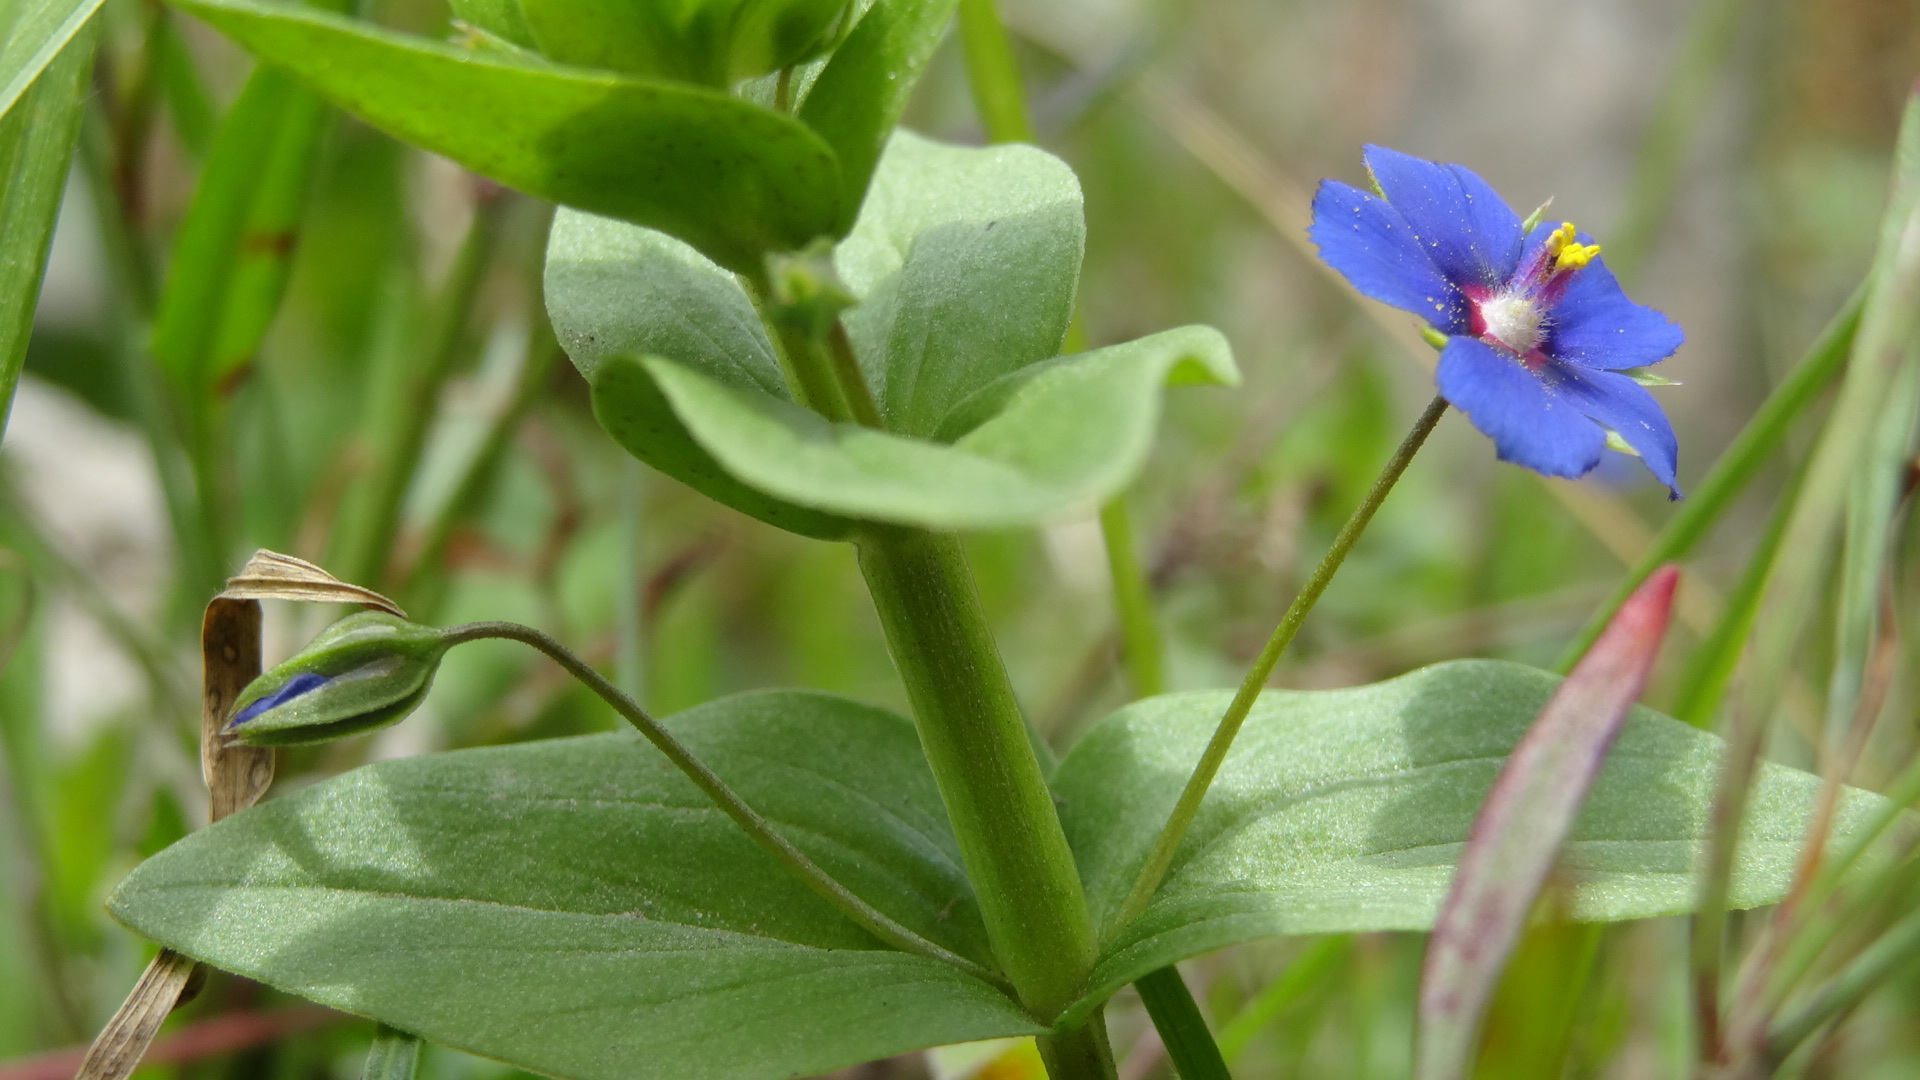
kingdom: Plantae
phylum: Tracheophyta
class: Magnoliopsida
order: Ericales
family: Primulaceae
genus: Lysimachia
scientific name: Lysimachia foemina
